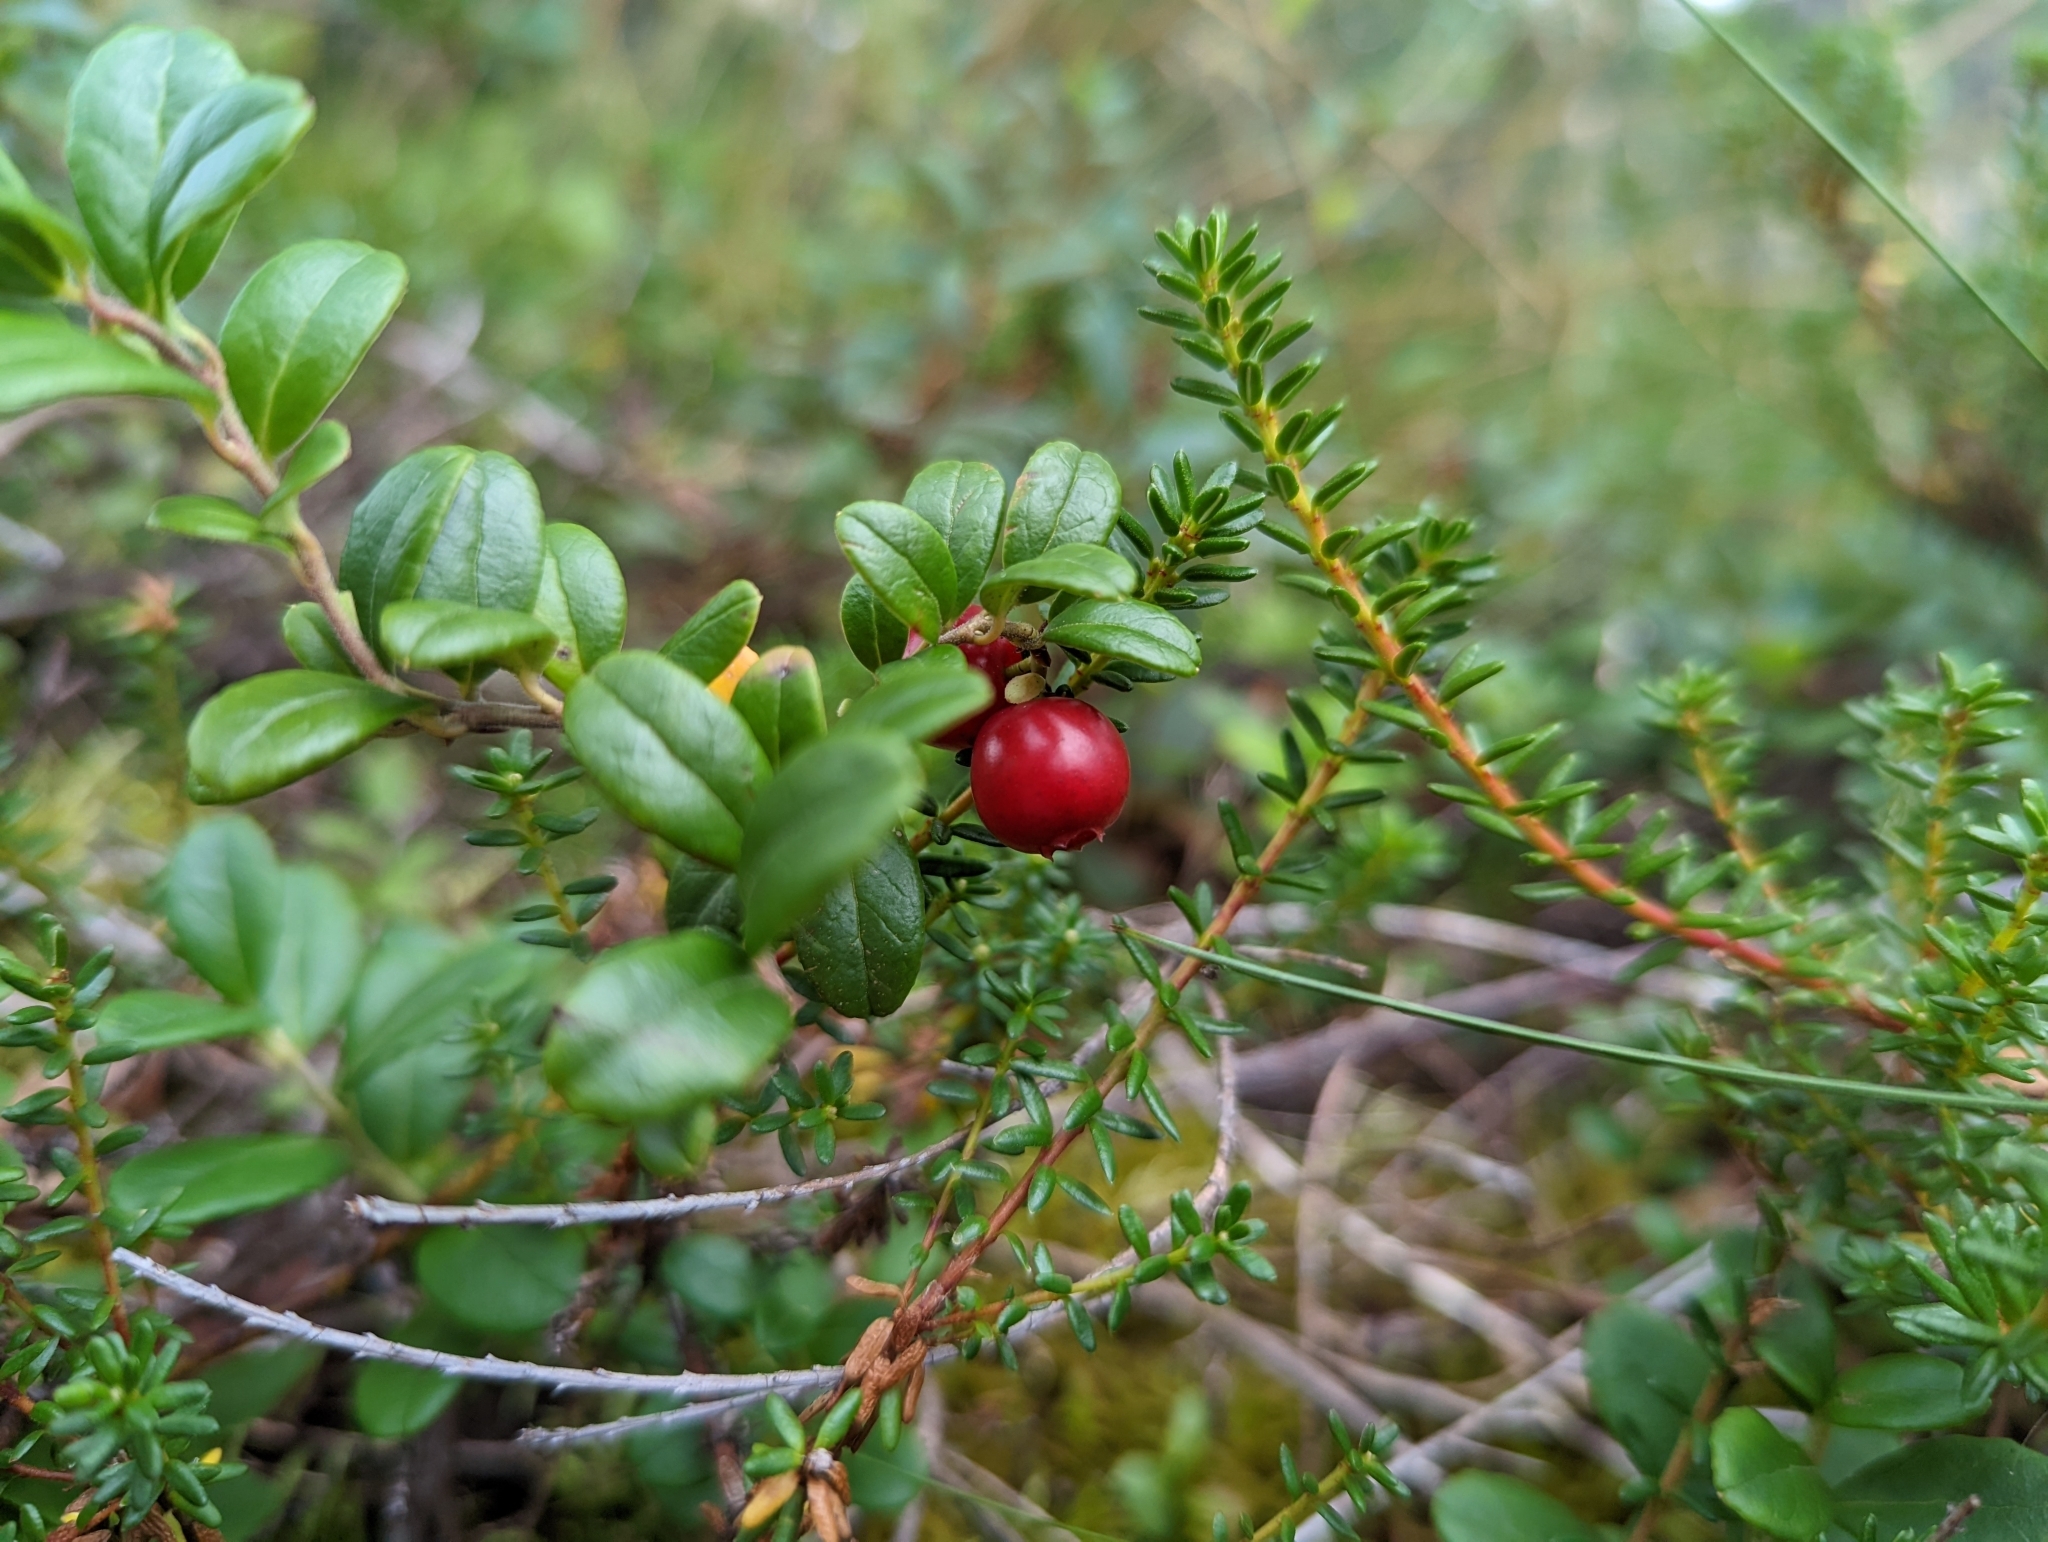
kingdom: Plantae
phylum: Tracheophyta
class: Magnoliopsida
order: Ericales
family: Ericaceae
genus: Vaccinium
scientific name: Vaccinium vitis-idaea
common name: Cowberry
